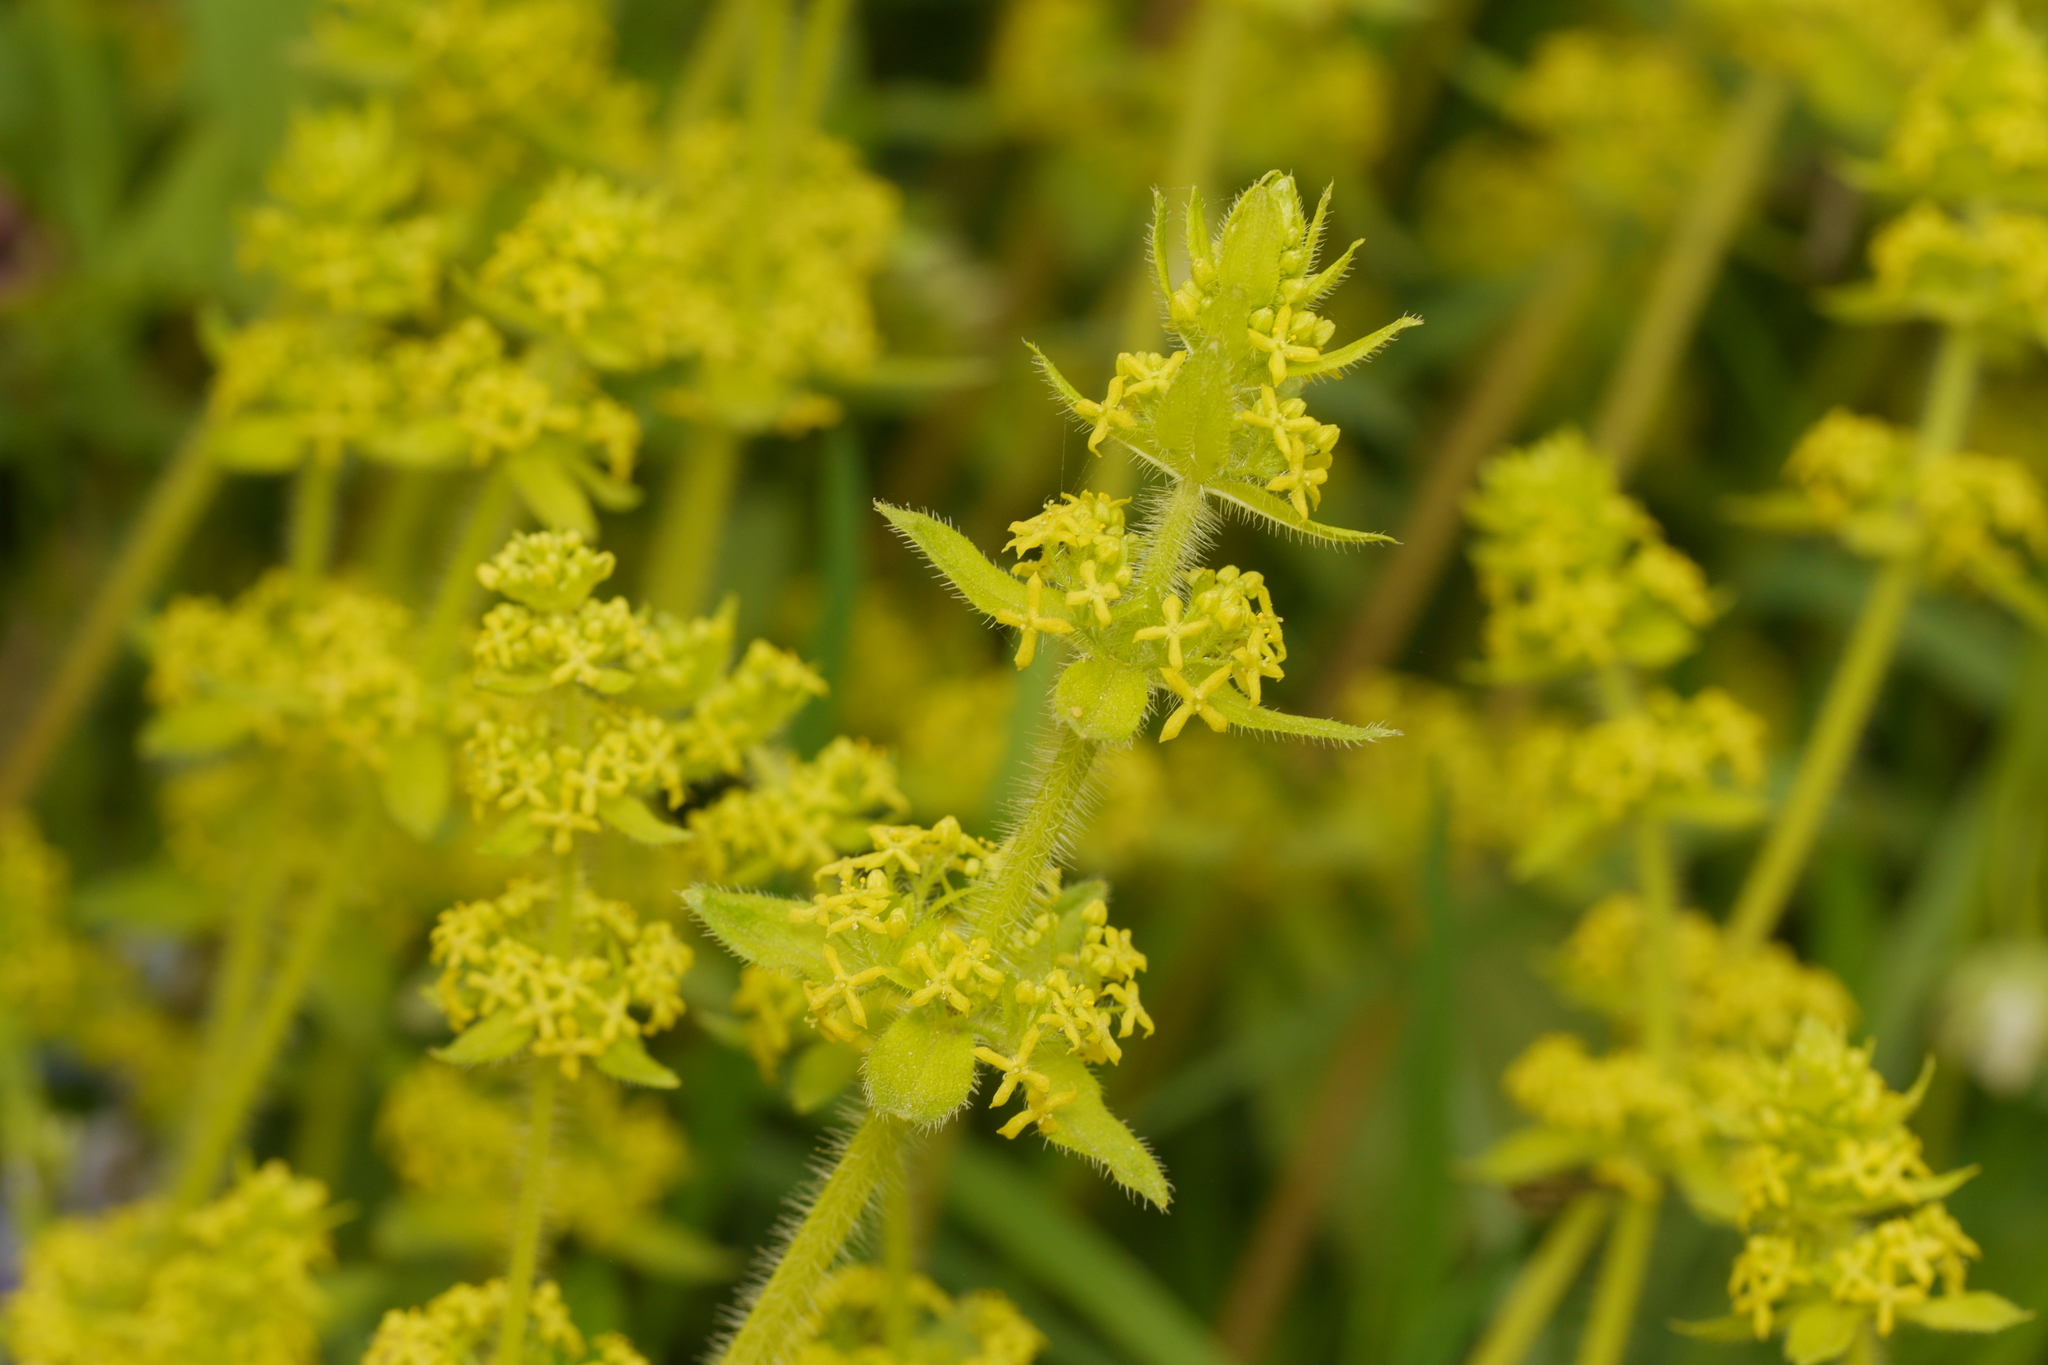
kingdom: Plantae
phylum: Tracheophyta
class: Magnoliopsida
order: Gentianales
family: Rubiaceae
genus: Cruciata
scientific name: Cruciata laevipes
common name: Crosswort
